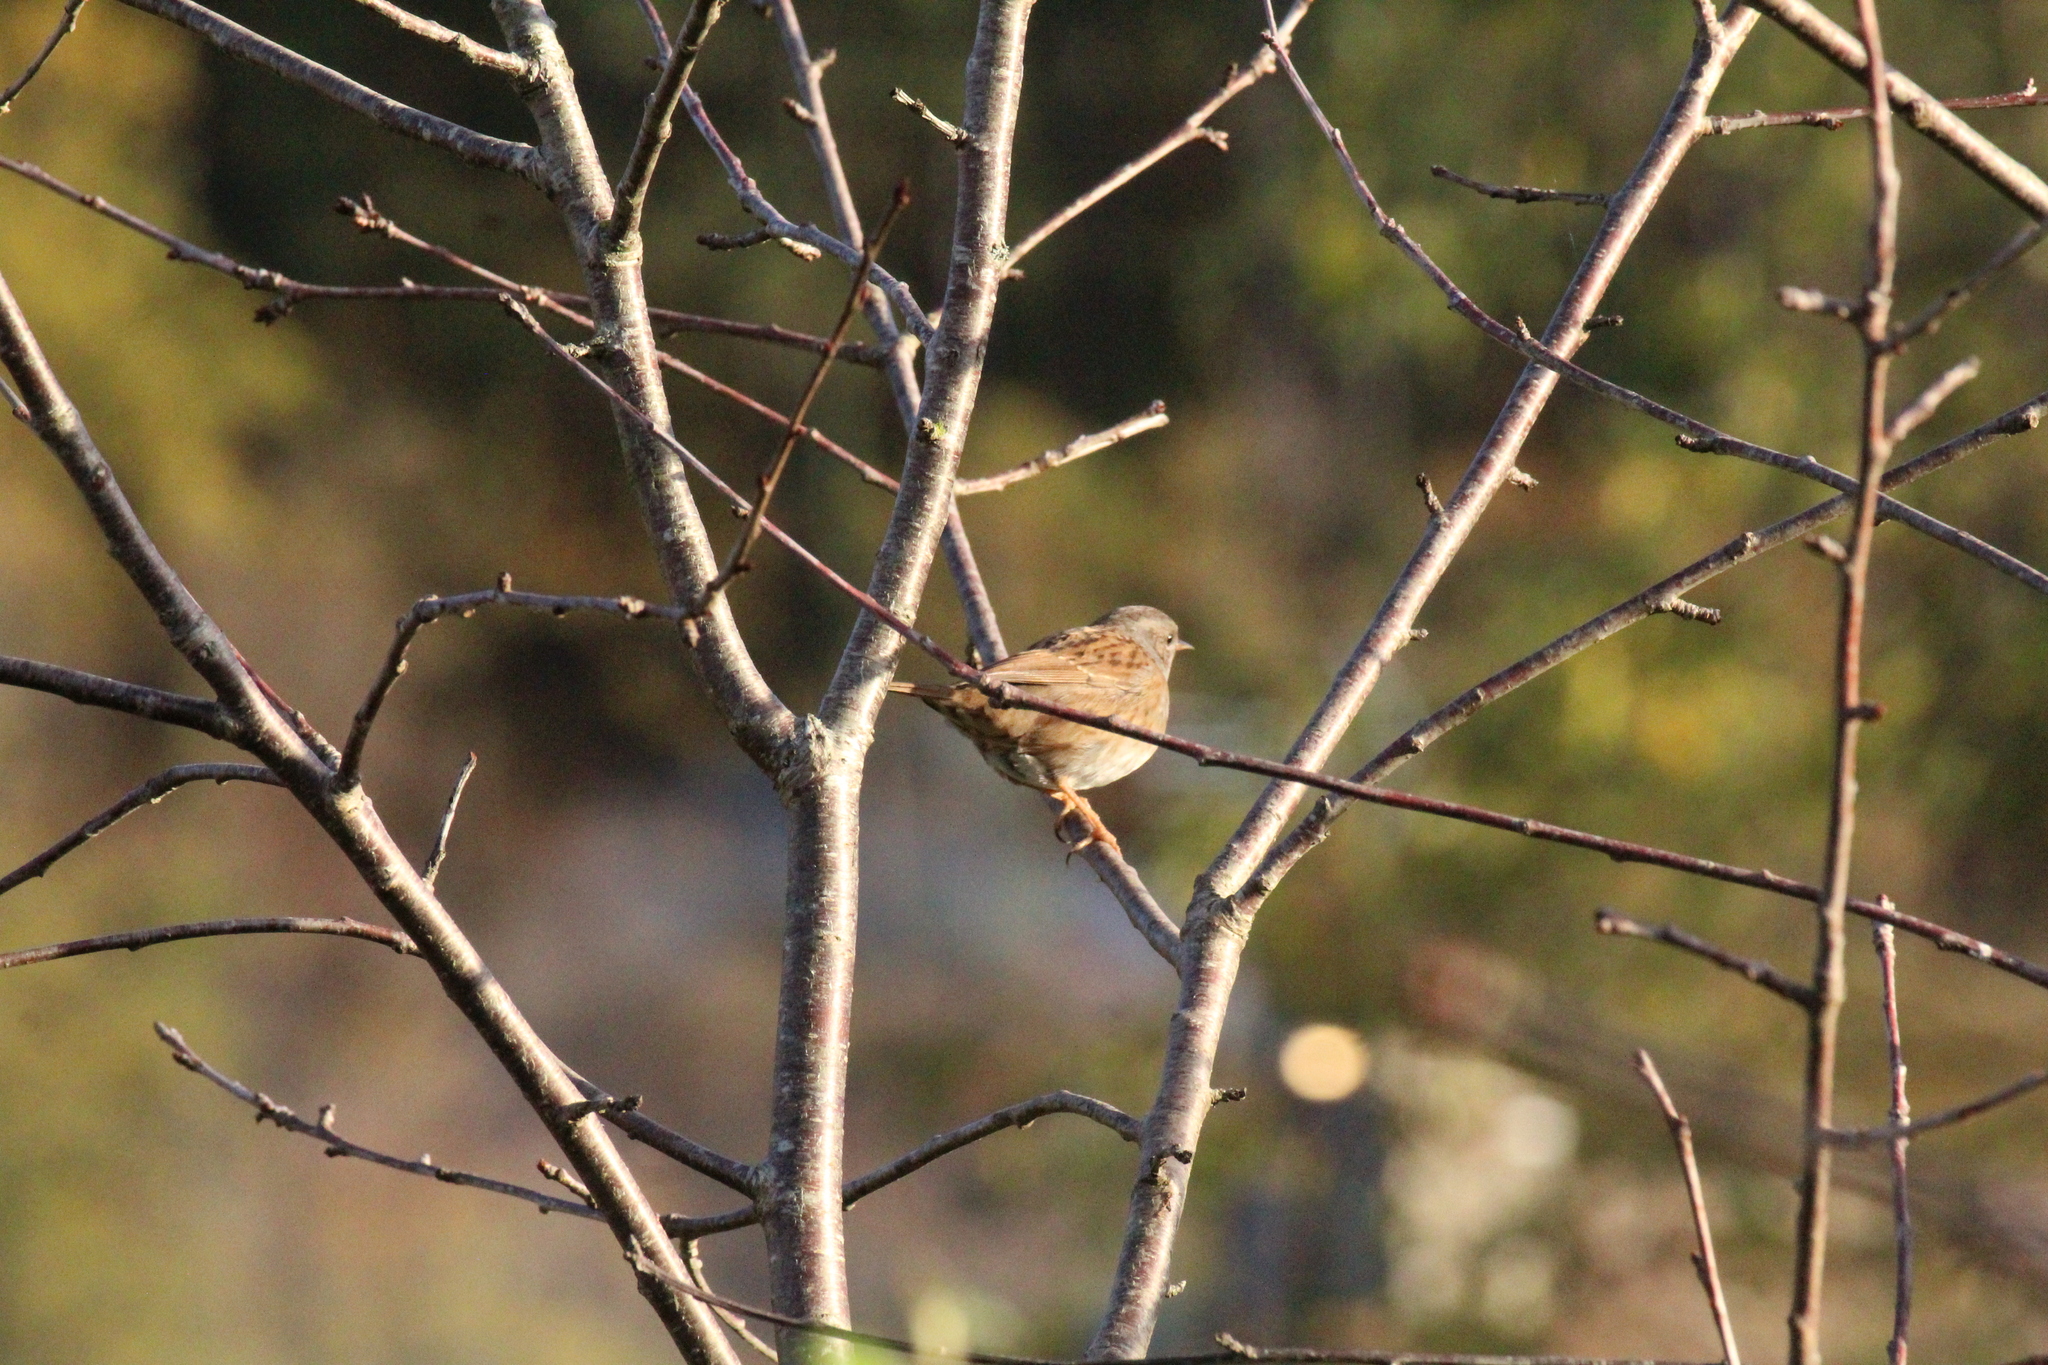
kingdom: Animalia
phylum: Chordata
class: Aves
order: Passeriformes
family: Prunellidae
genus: Prunella
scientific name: Prunella modularis
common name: Dunnock
